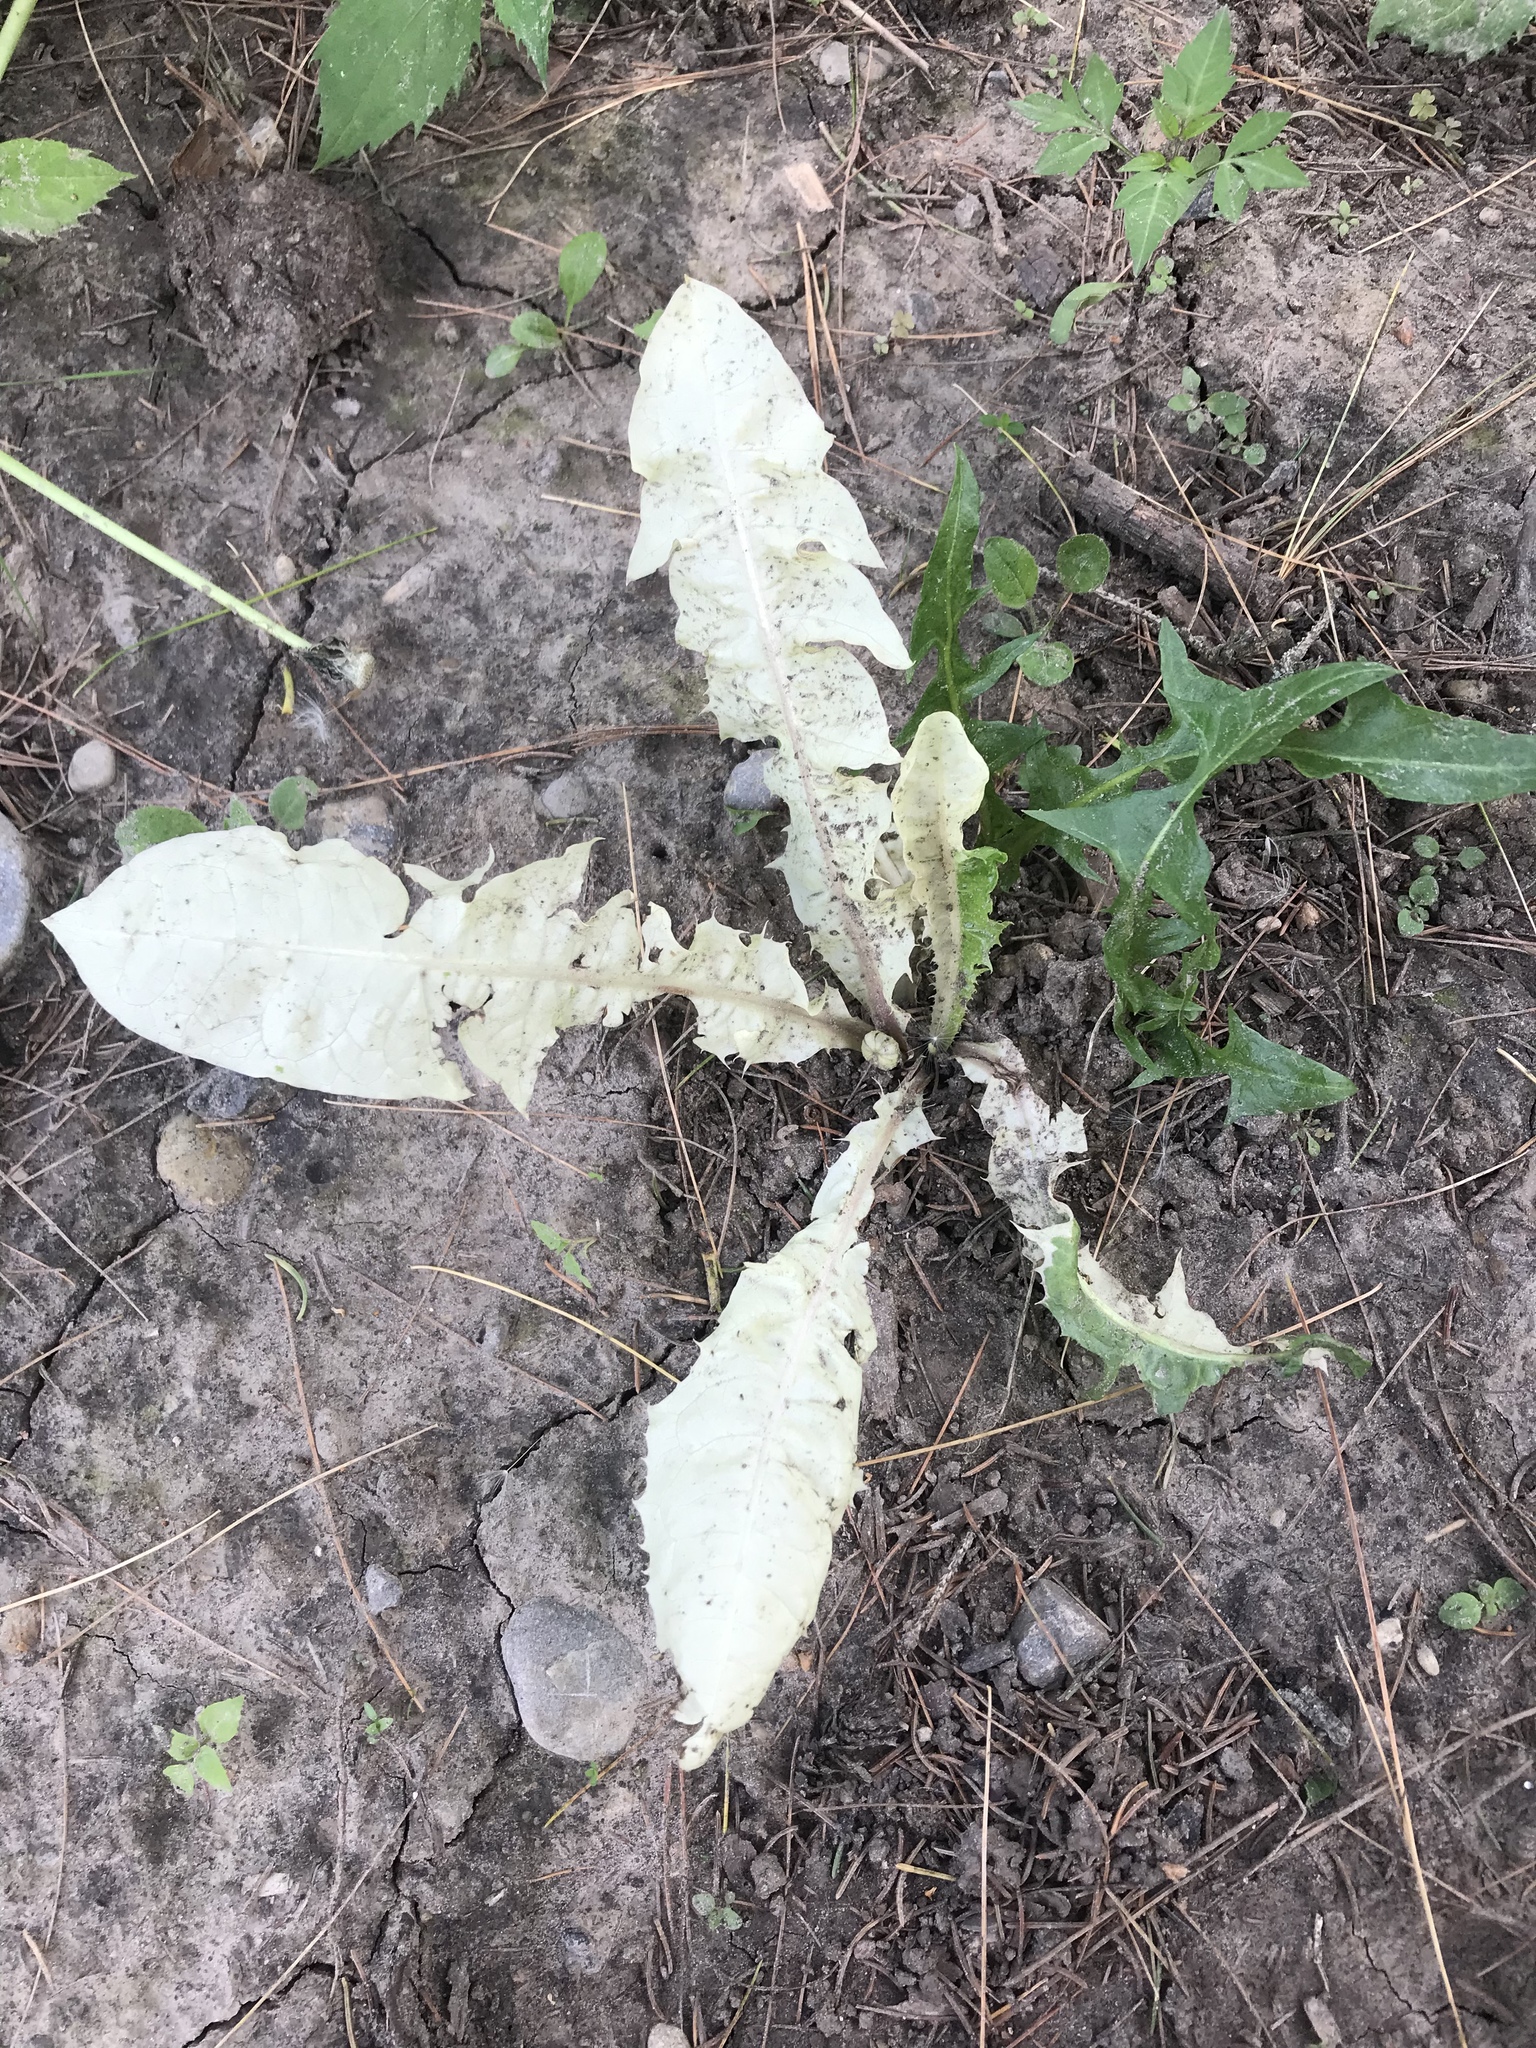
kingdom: Plantae
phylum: Tracheophyta
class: Magnoliopsida
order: Asterales
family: Asteraceae
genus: Taraxacum
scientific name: Taraxacum officinale
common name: Common dandelion
